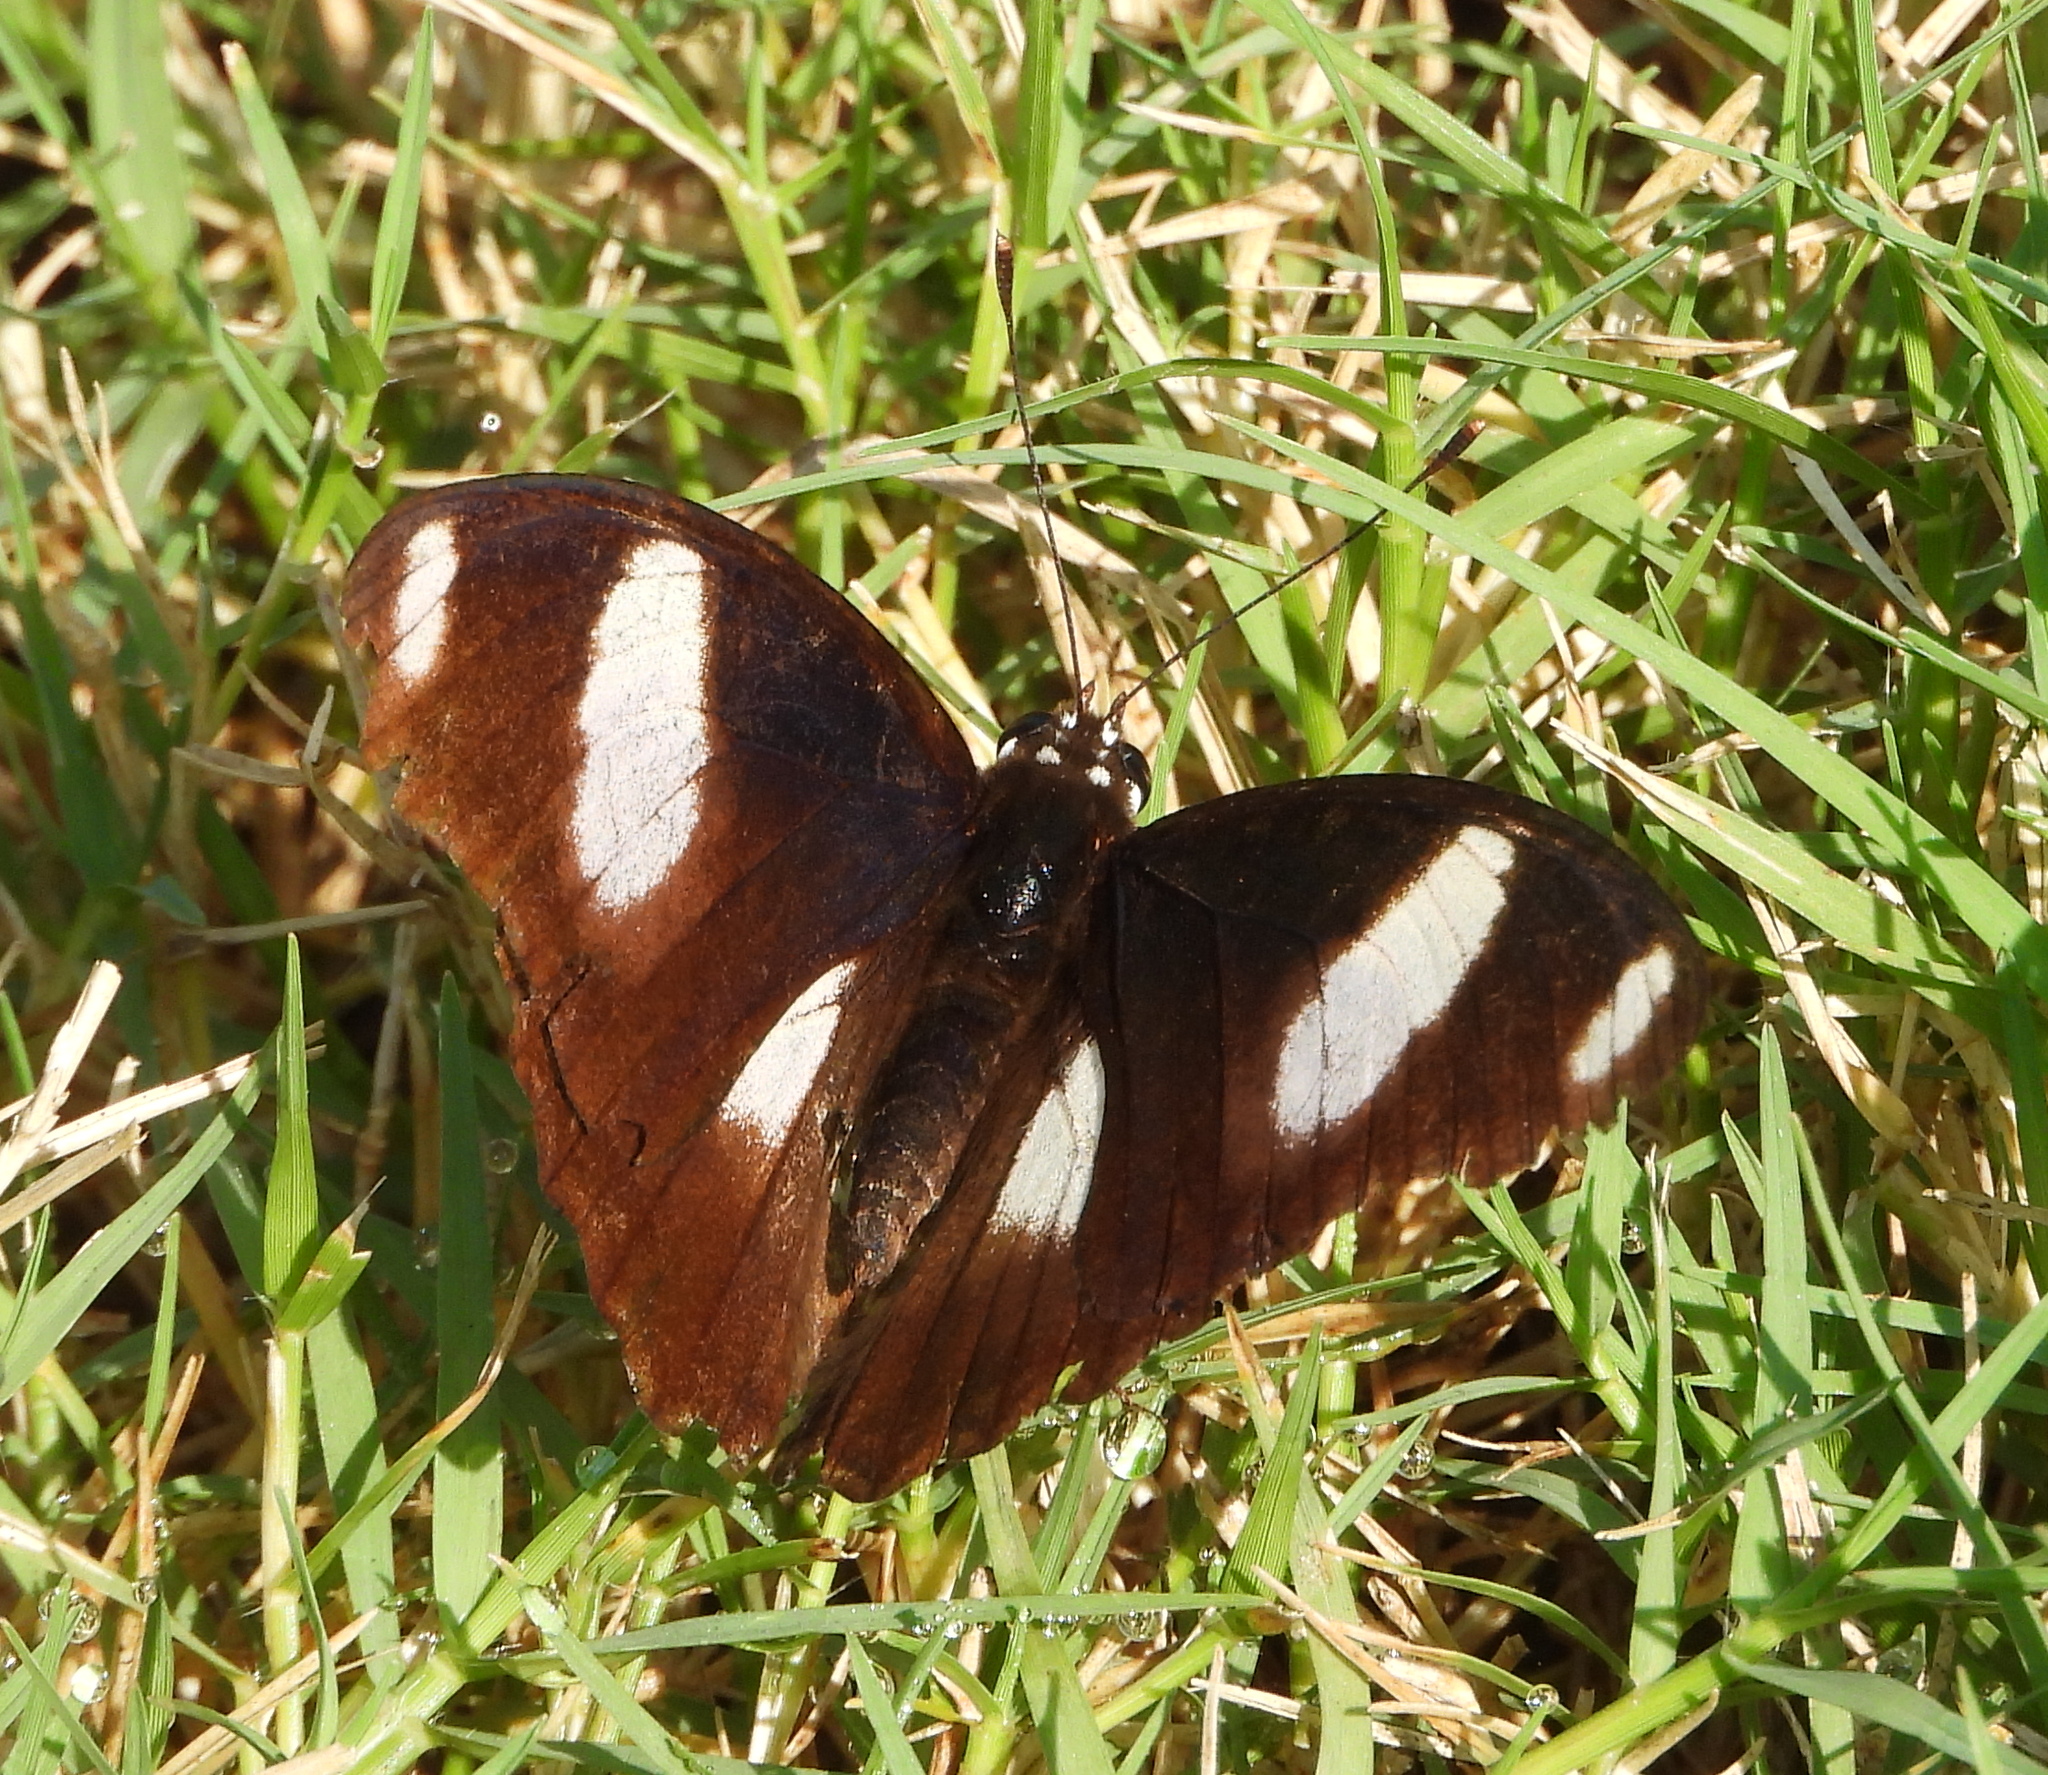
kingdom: Animalia
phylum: Arthropoda
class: Insecta
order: Lepidoptera
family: Nymphalidae
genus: Hypolimnas
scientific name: Hypolimnas misippus
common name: False plain tiger
